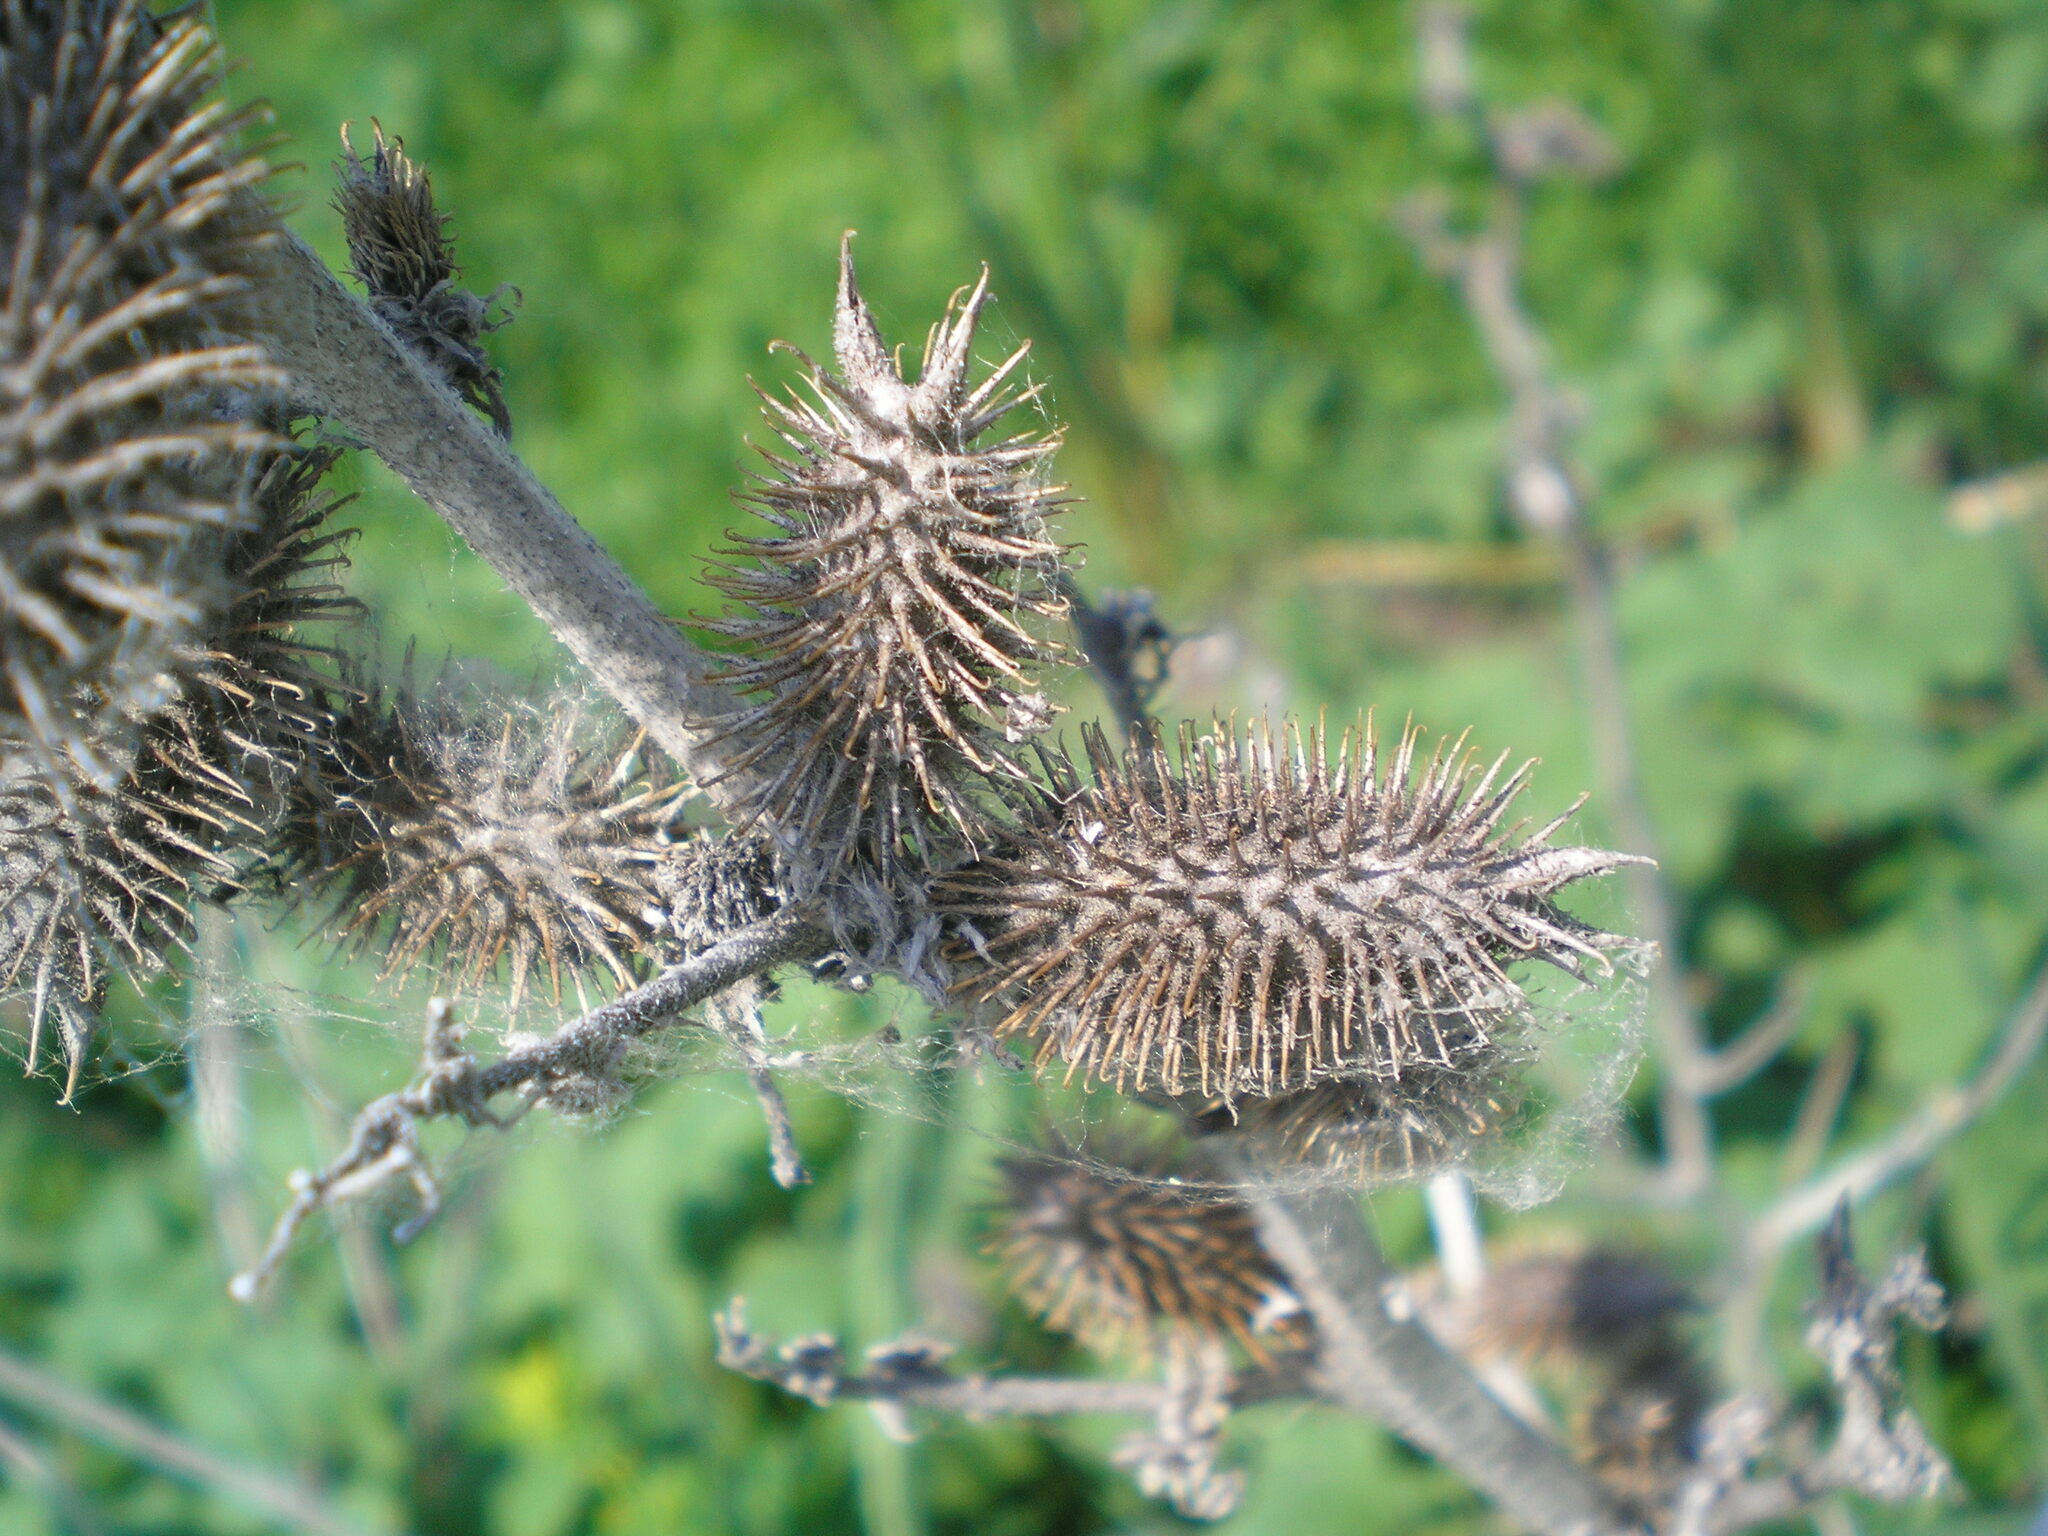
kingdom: Plantae
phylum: Tracheophyta
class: Magnoliopsida
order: Asterales
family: Asteraceae
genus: Xanthium
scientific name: Xanthium orientale
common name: Californian burr
